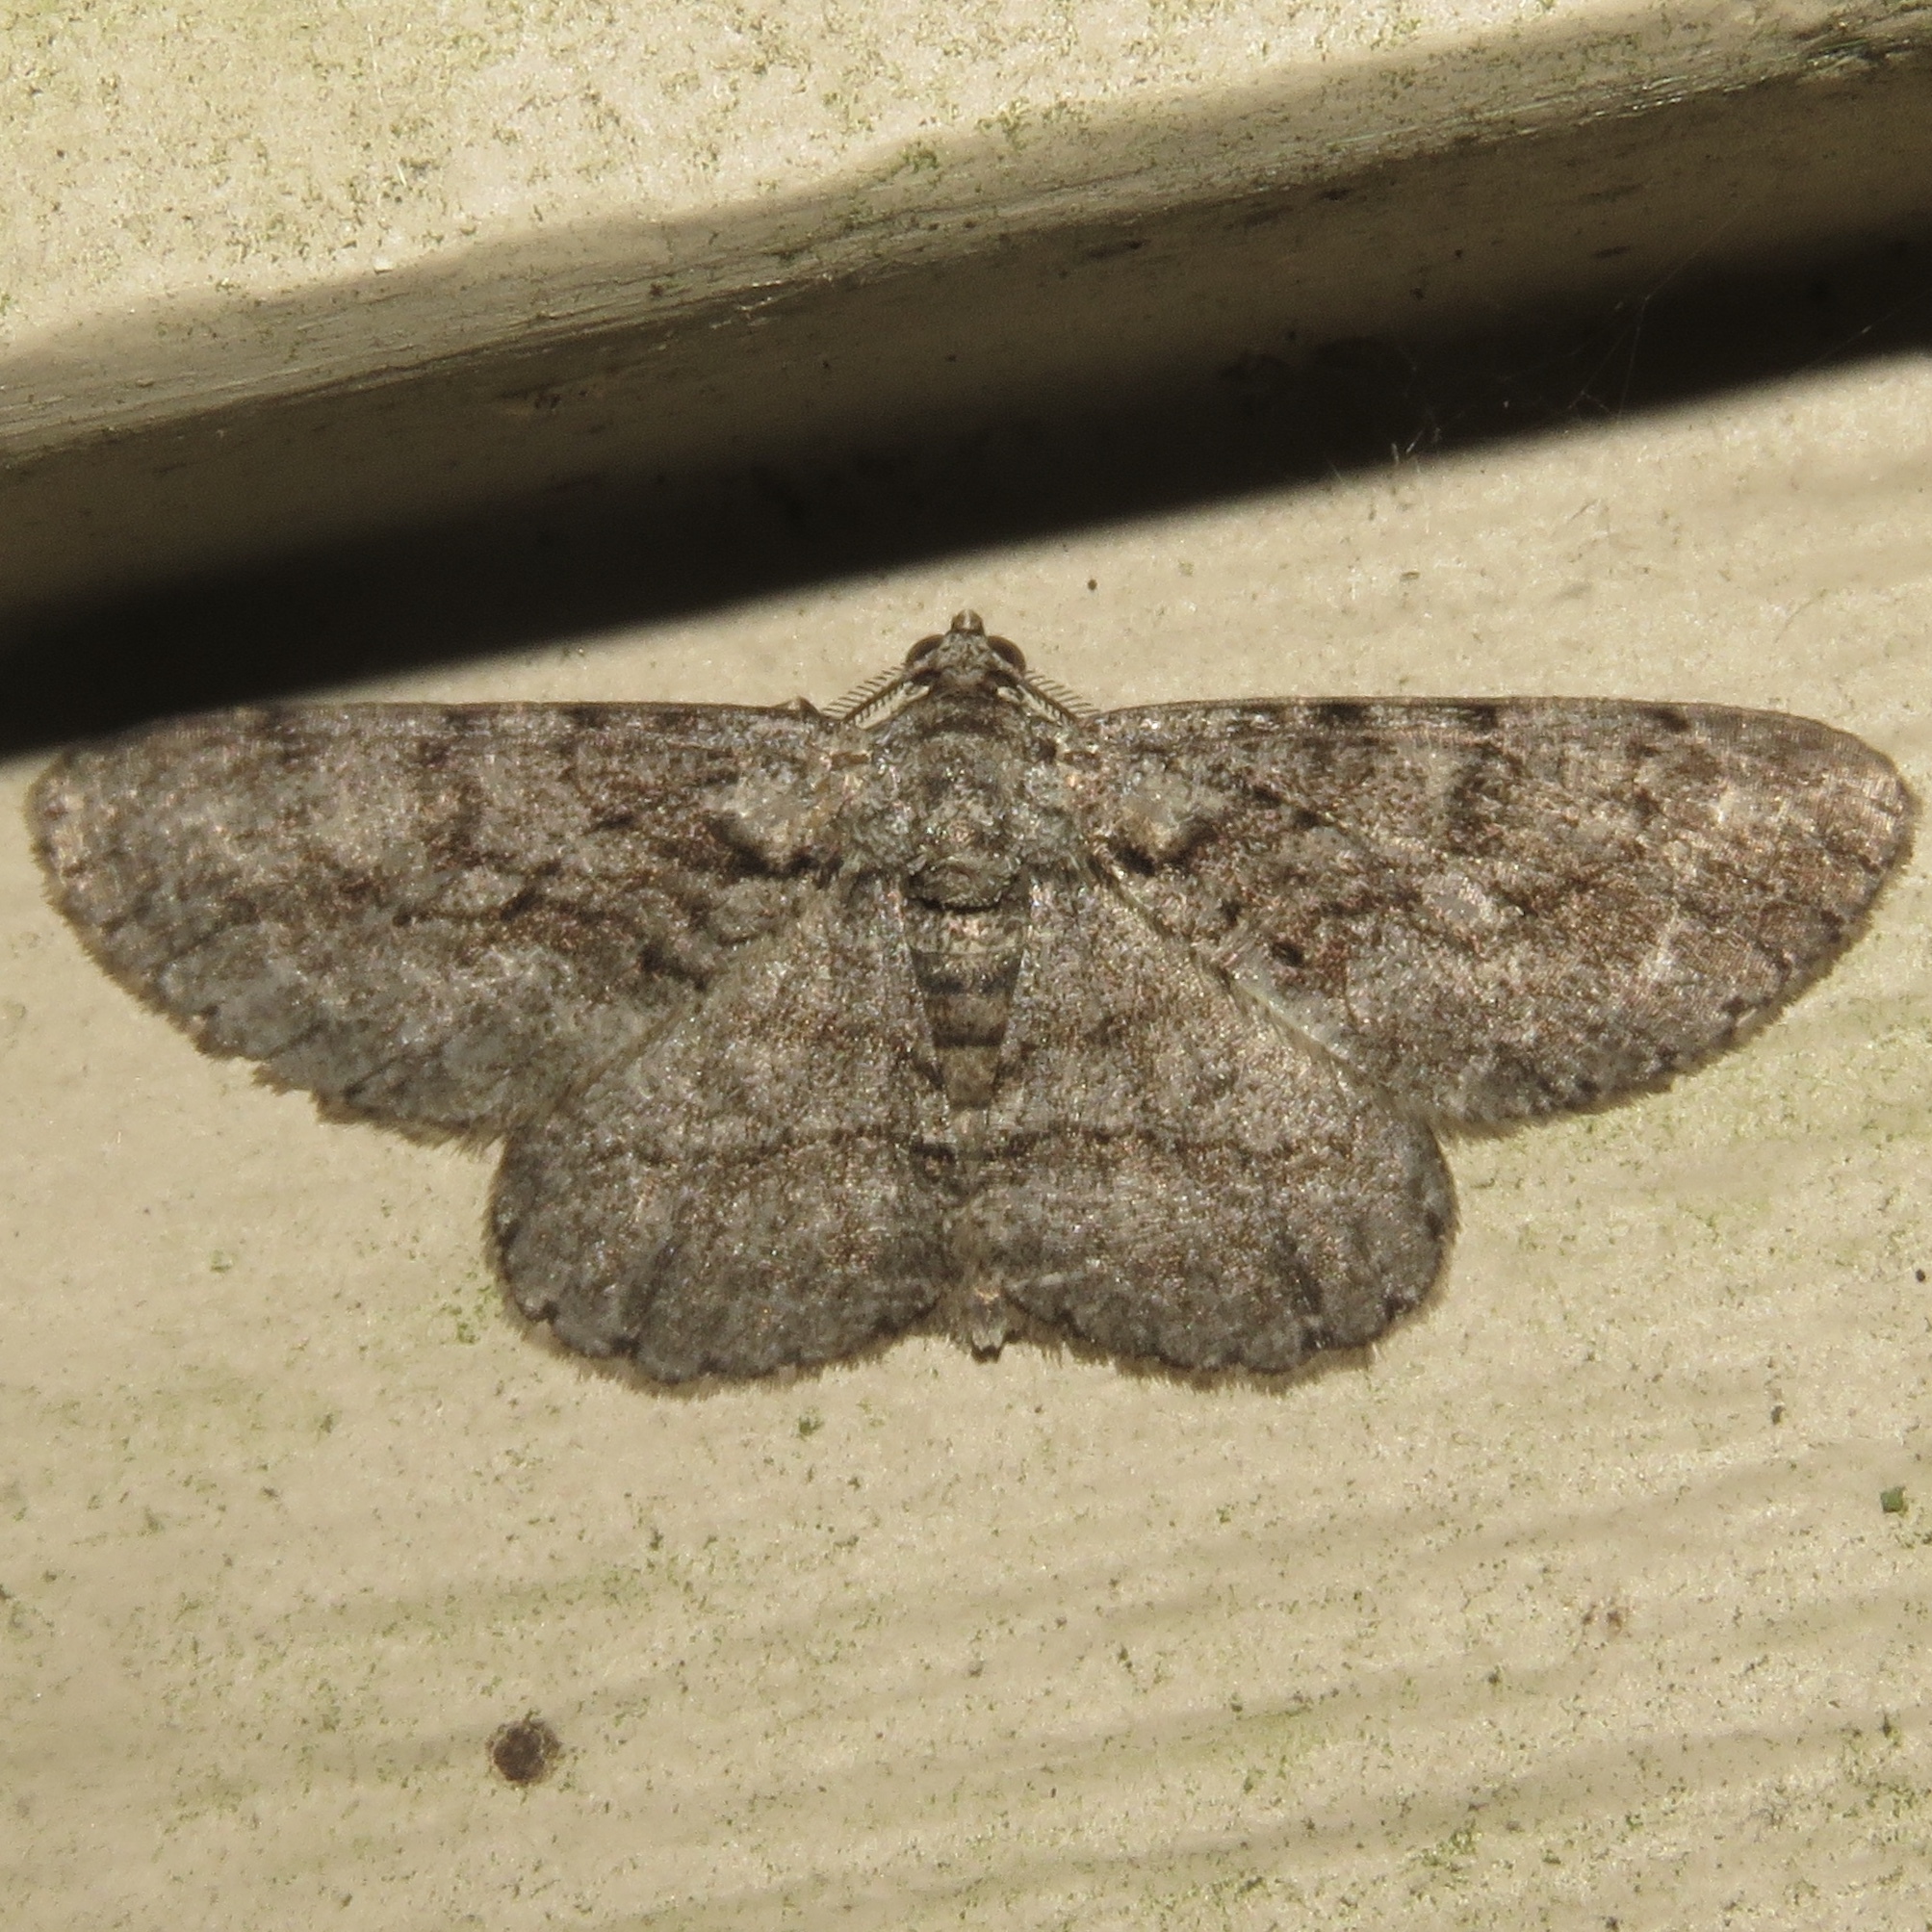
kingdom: Animalia
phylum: Arthropoda
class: Insecta
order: Lepidoptera
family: Geometridae
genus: Anavitrinella
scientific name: Anavitrinella pampinaria
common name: Common gray
